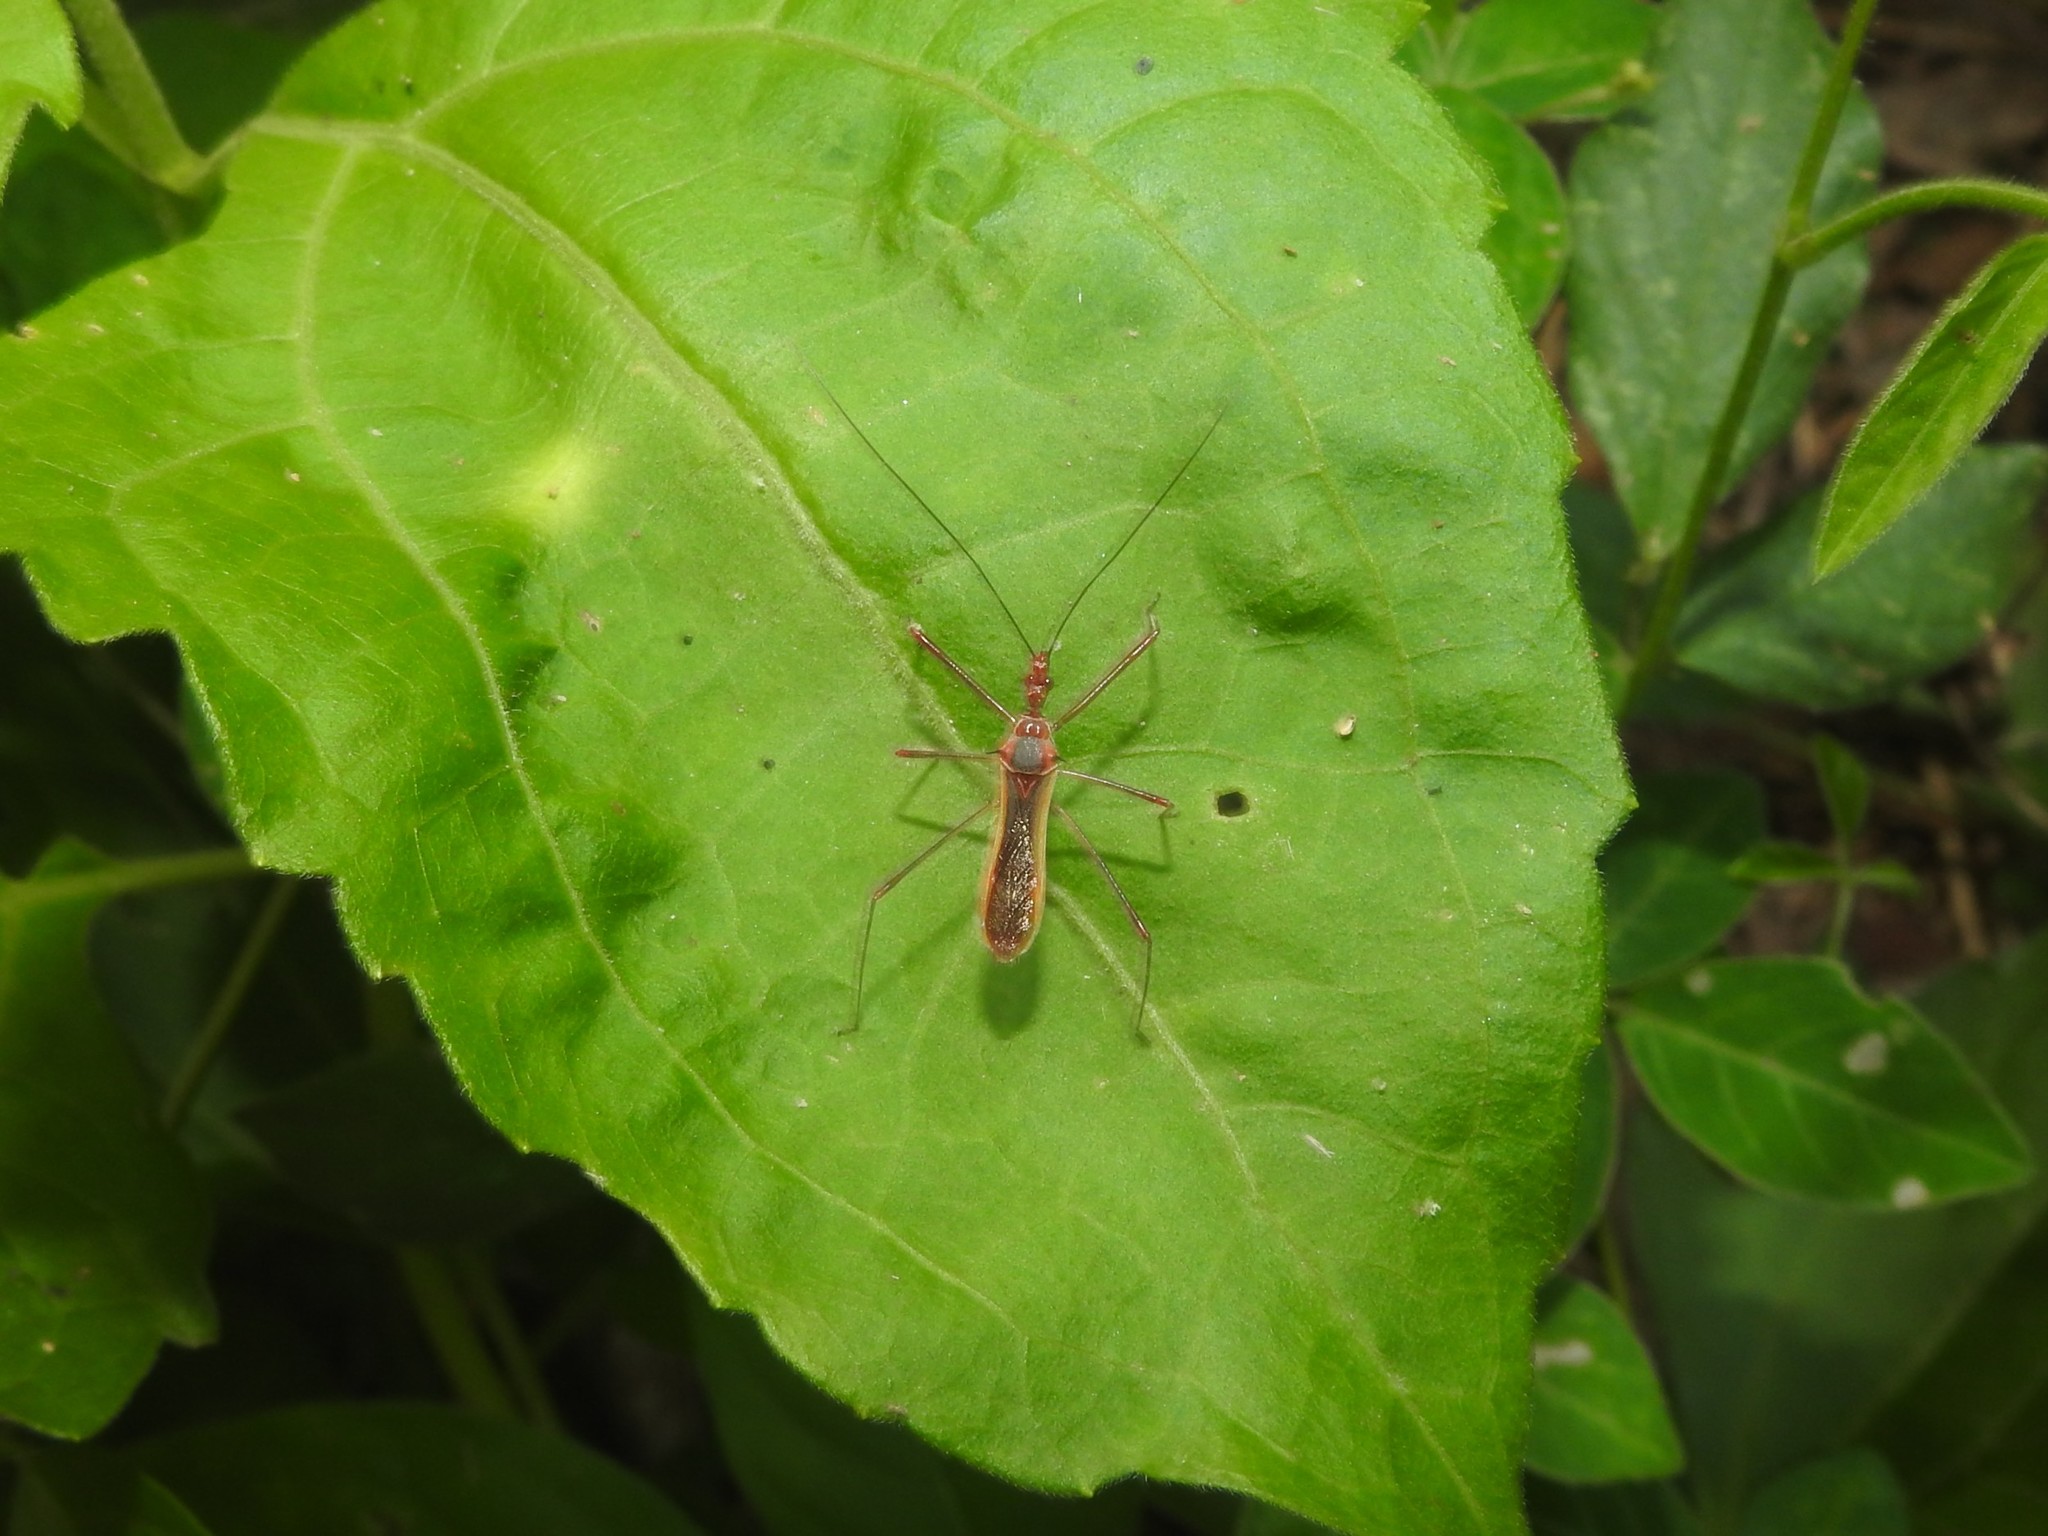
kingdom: Animalia
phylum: Arthropoda
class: Insecta
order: Hemiptera
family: Reduviidae
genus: Euagoras
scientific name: Euagoras plagiatus
